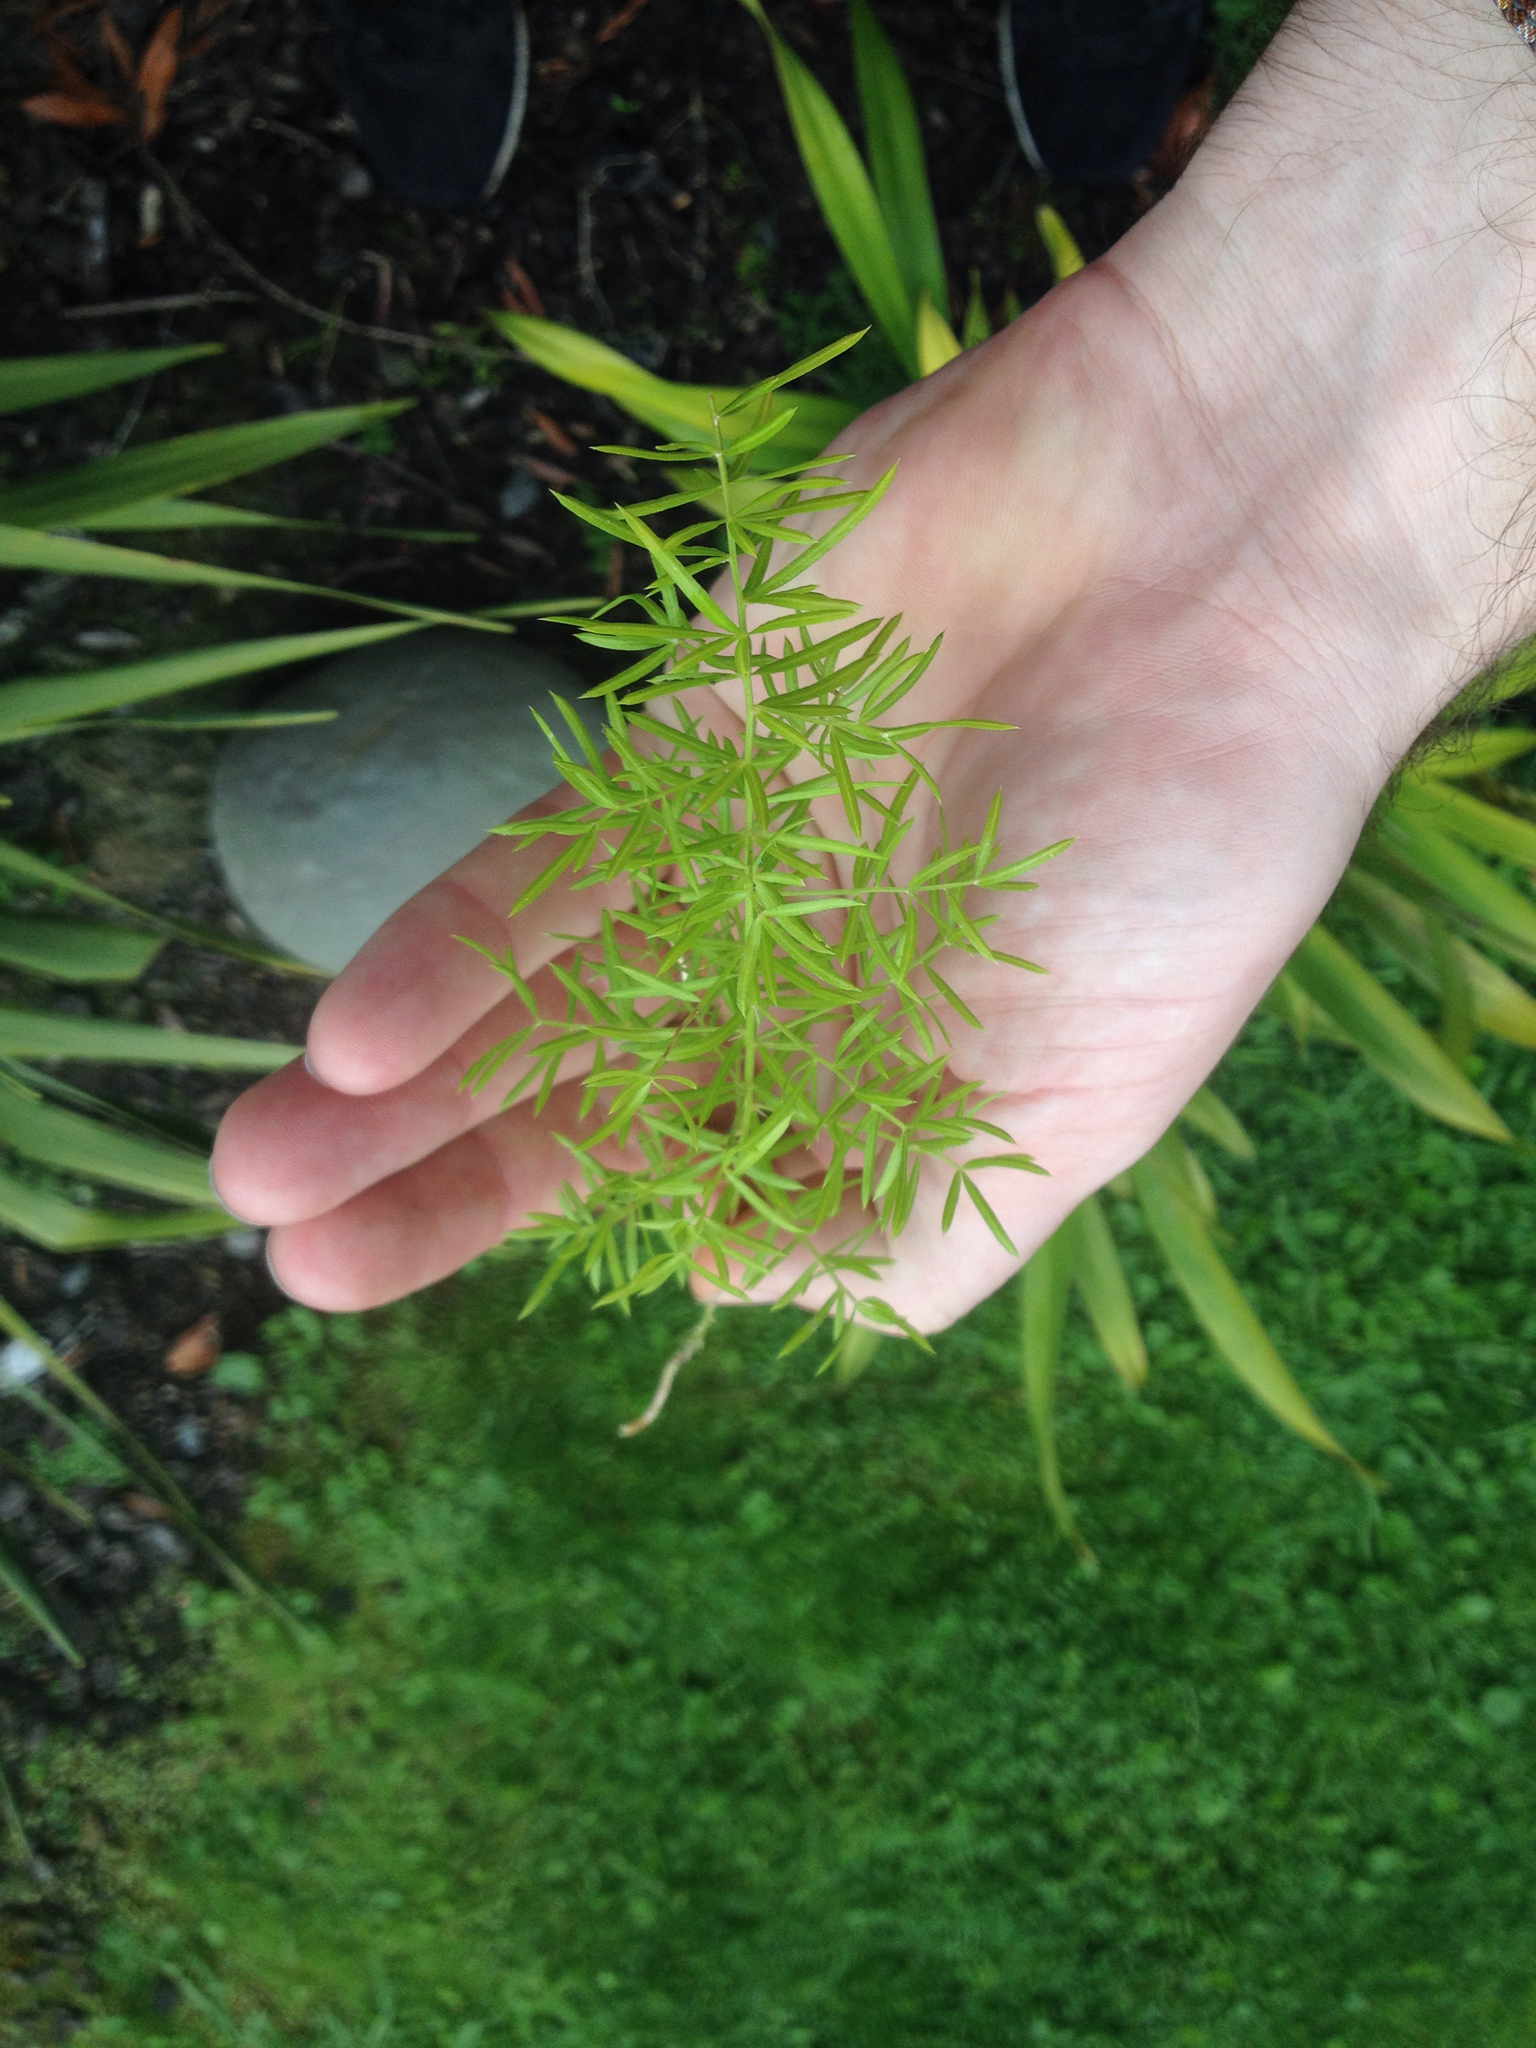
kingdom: Plantae
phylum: Tracheophyta
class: Liliopsida
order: Asparagales
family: Asparagaceae
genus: Asparagus
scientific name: Asparagus aethiopicus
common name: Sprenger's asparagus fern
